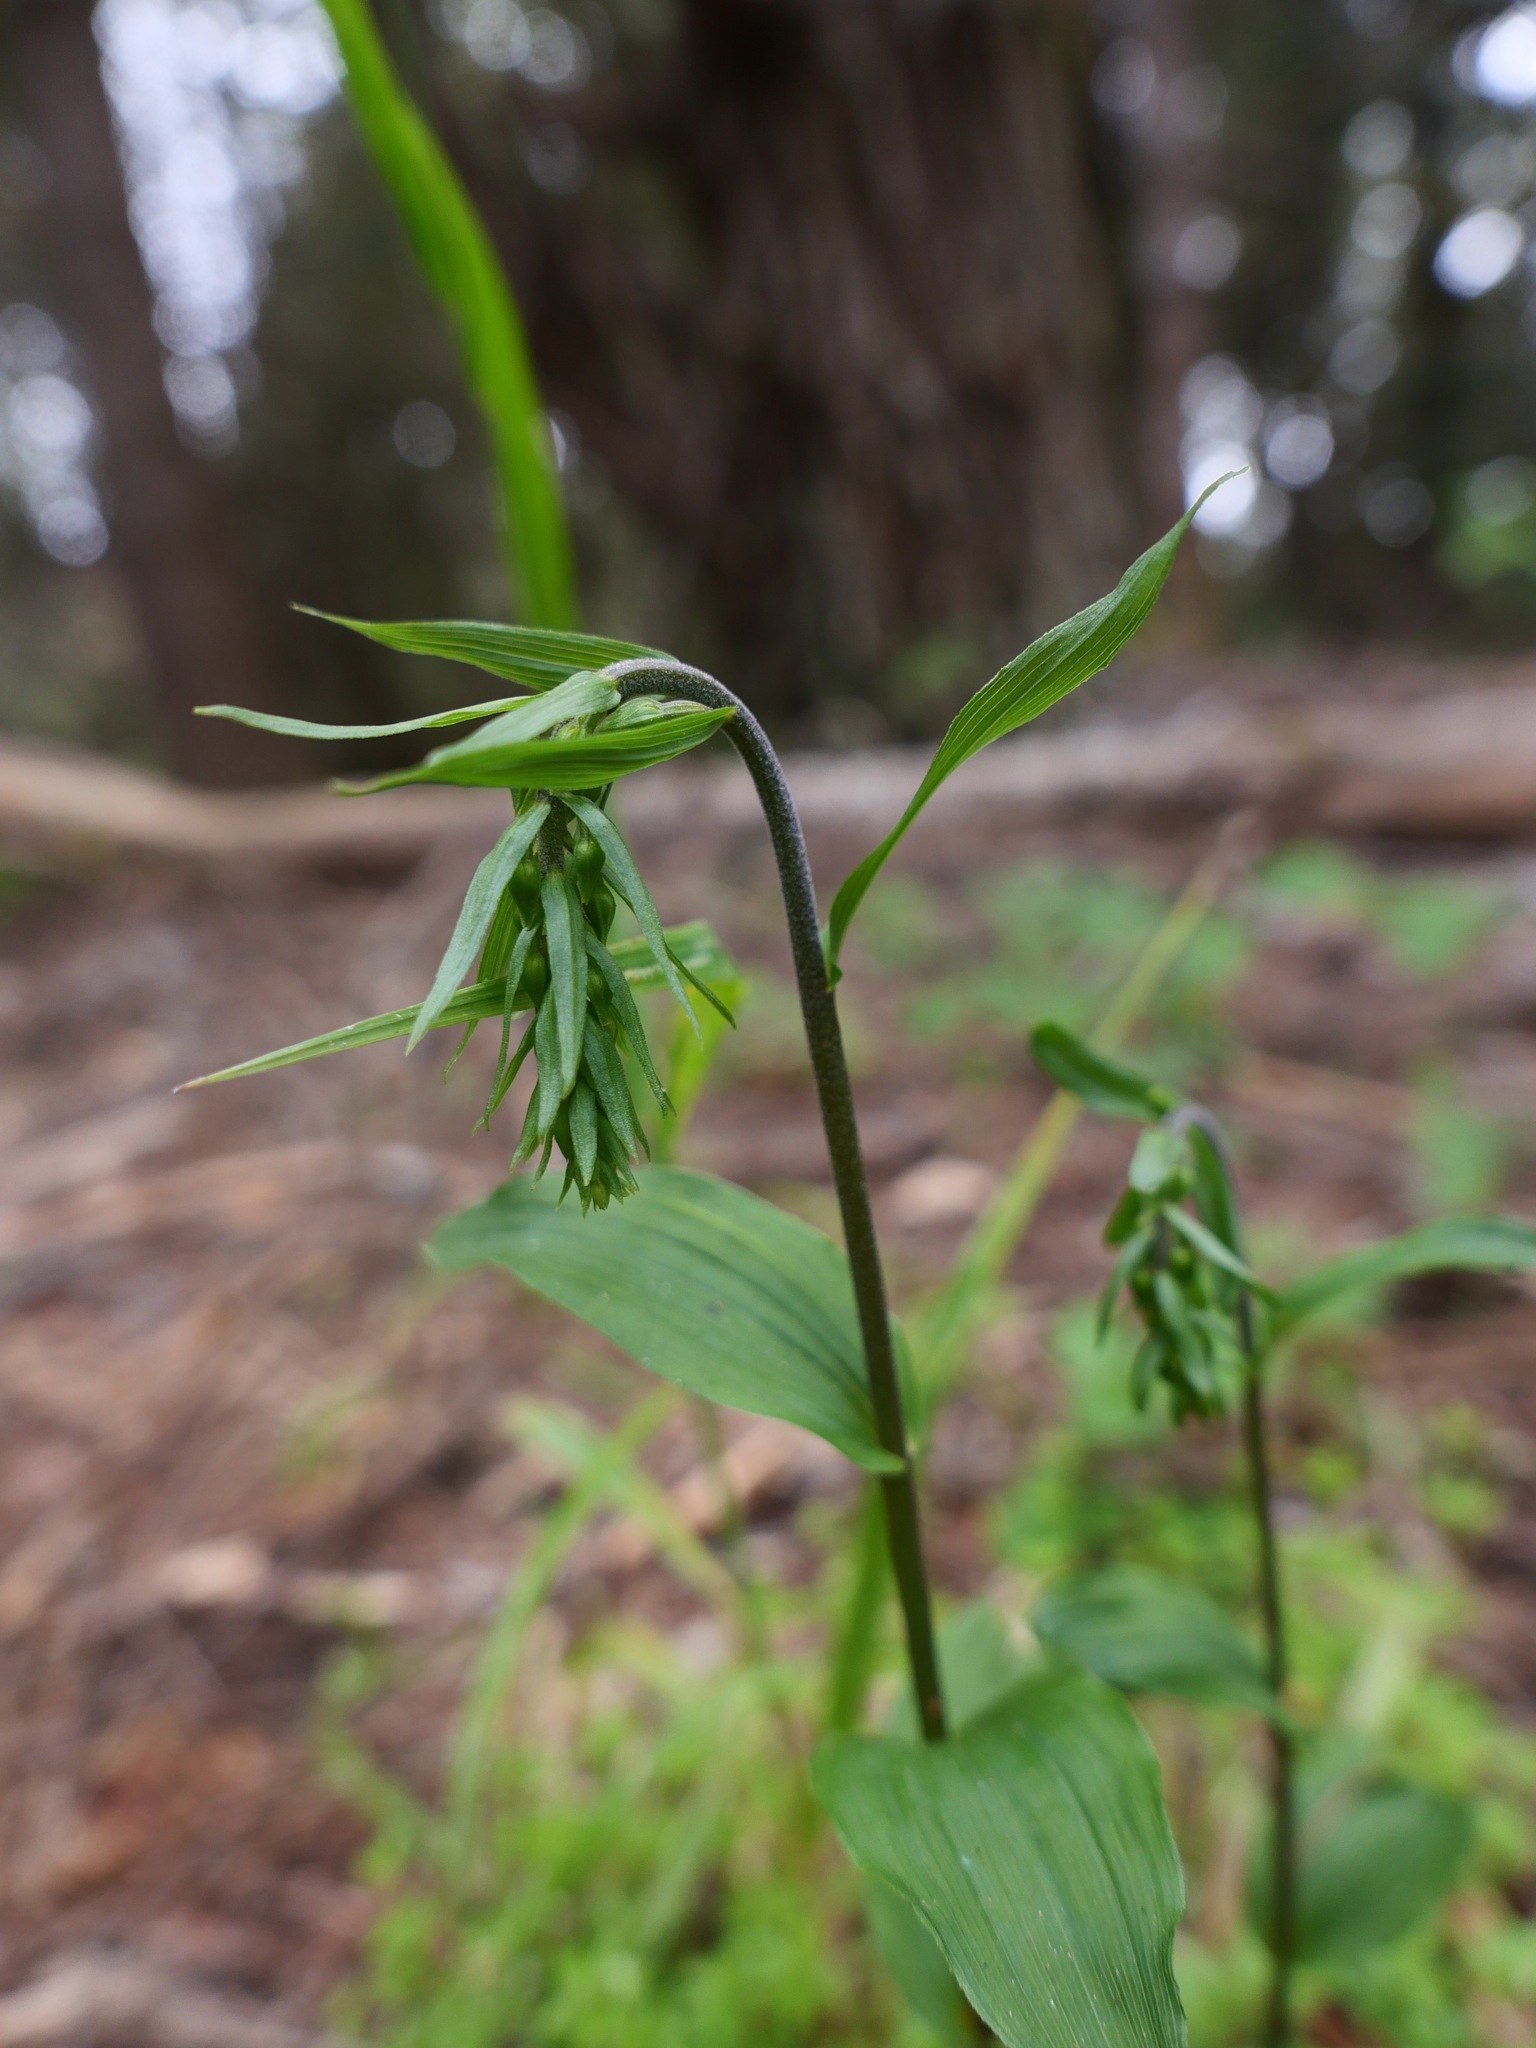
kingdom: Plantae
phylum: Tracheophyta
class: Liliopsida
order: Asparagales
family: Orchidaceae
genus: Epipactis
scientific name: Epipactis helleborine
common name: Broad-leaved helleborine
